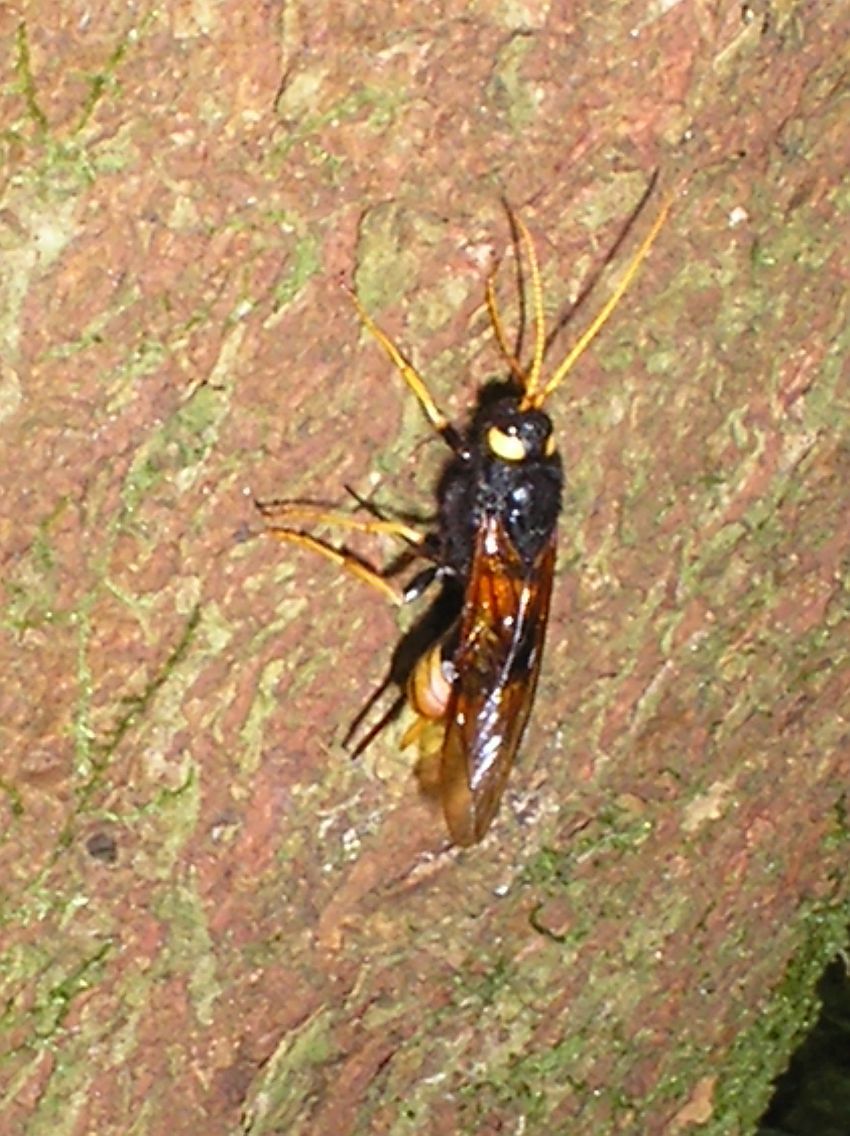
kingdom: Animalia
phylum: Arthropoda
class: Insecta
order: Hymenoptera
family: Siricidae
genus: Urocerus
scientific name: Urocerus gigas
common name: Giant woodwasp
